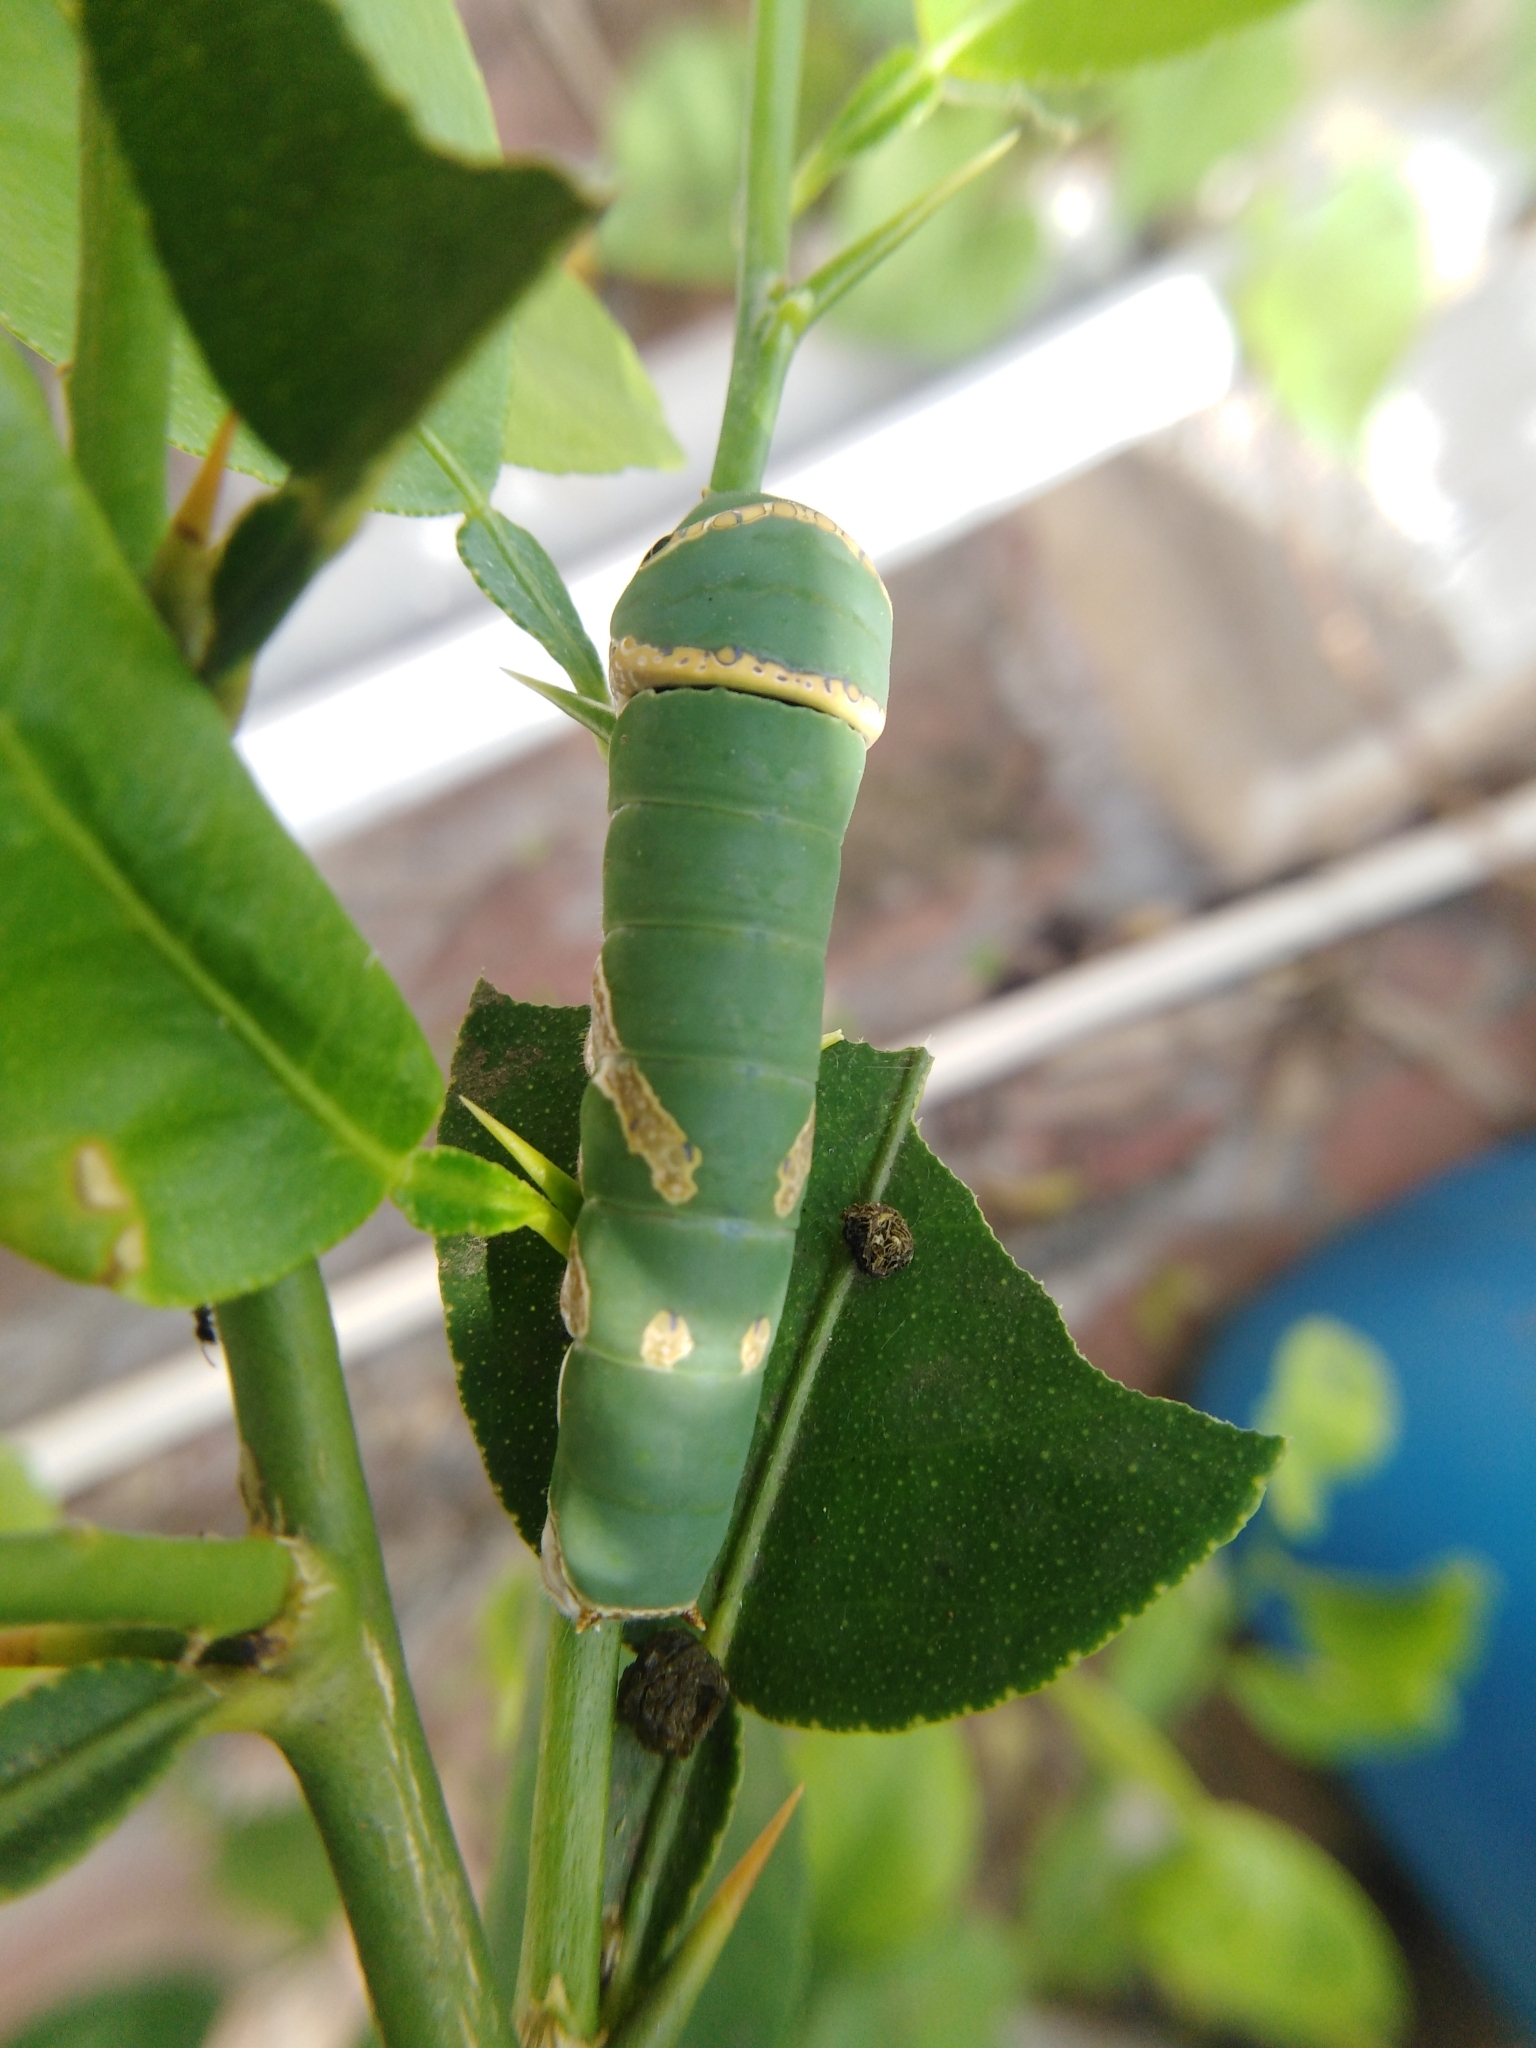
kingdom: Animalia
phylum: Arthropoda
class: Insecta
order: Lepidoptera
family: Papilionidae
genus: Papilio
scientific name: Papilio demoleus
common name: Lime butterfly
